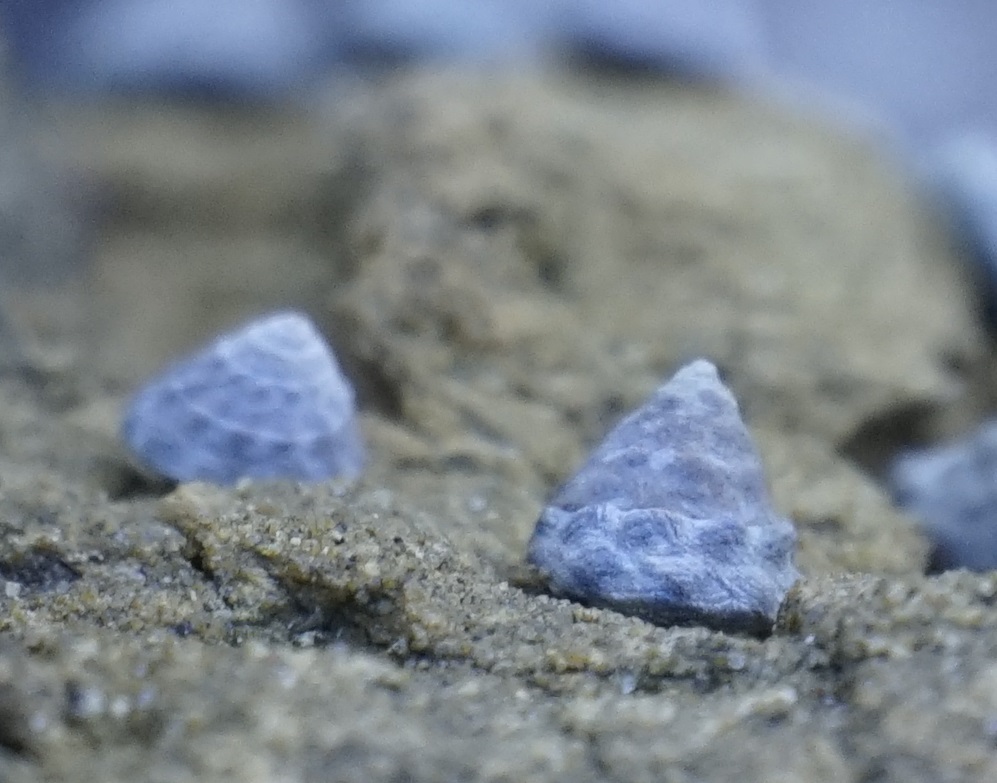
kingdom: Animalia
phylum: Mollusca
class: Gastropoda
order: Littorinimorpha
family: Littorinidae
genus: Bembicium
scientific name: Bembicium auratum
